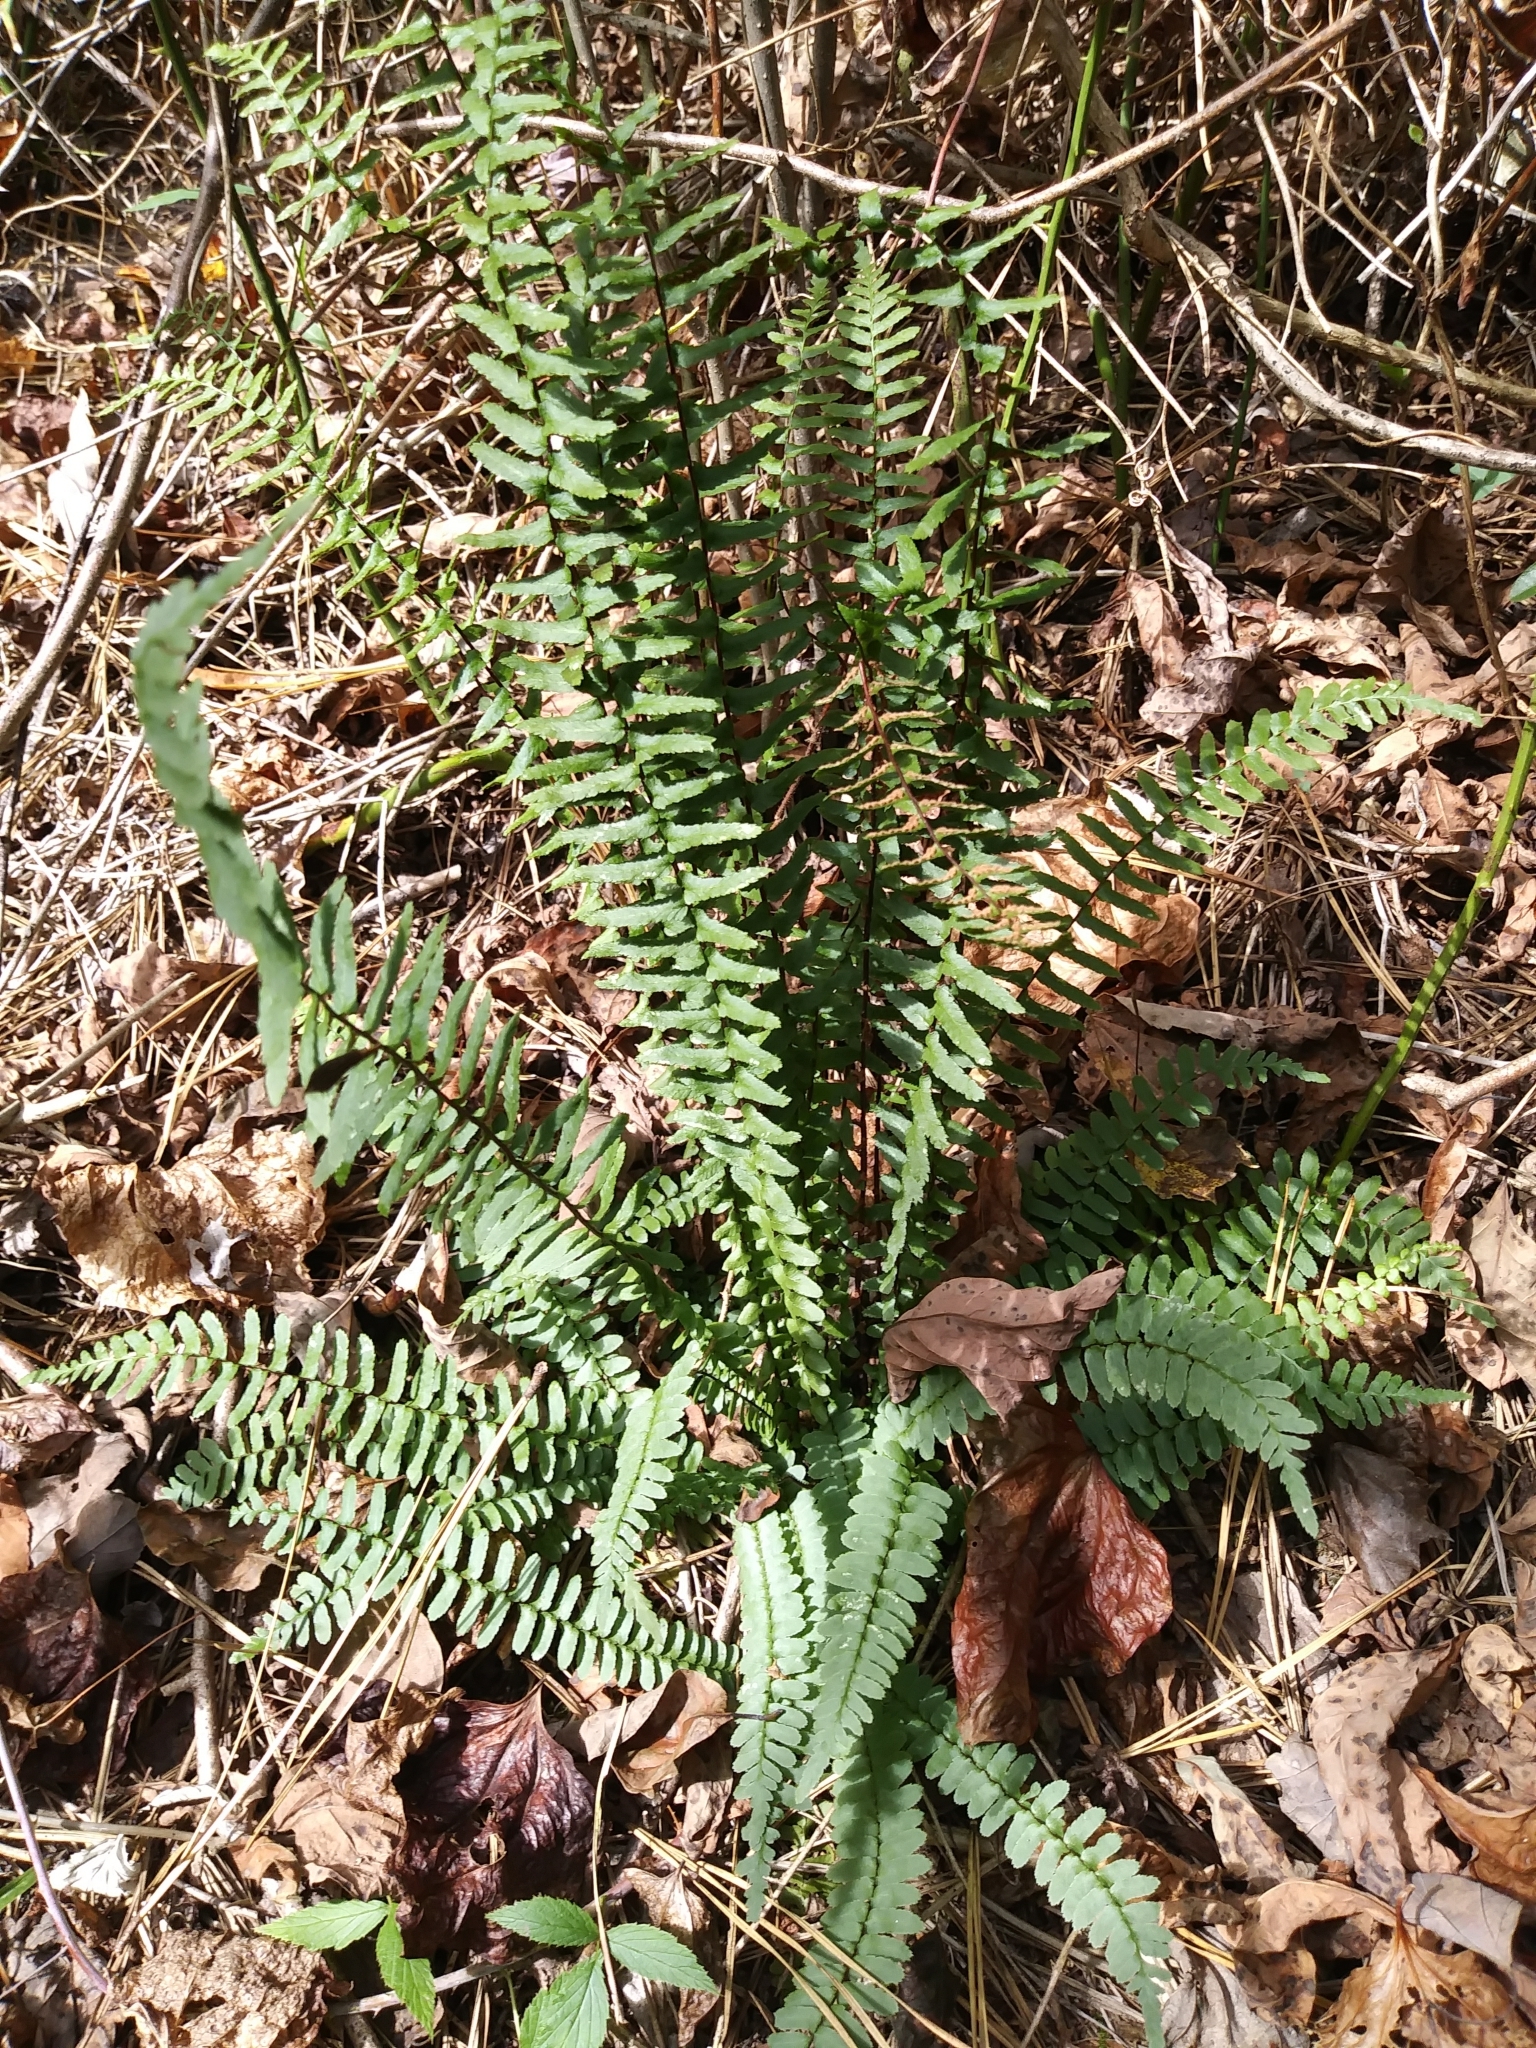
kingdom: Plantae
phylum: Tracheophyta
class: Polypodiopsida
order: Polypodiales
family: Aspleniaceae
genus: Asplenium
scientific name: Asplenium platyneuron
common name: Ebony spleenwort
